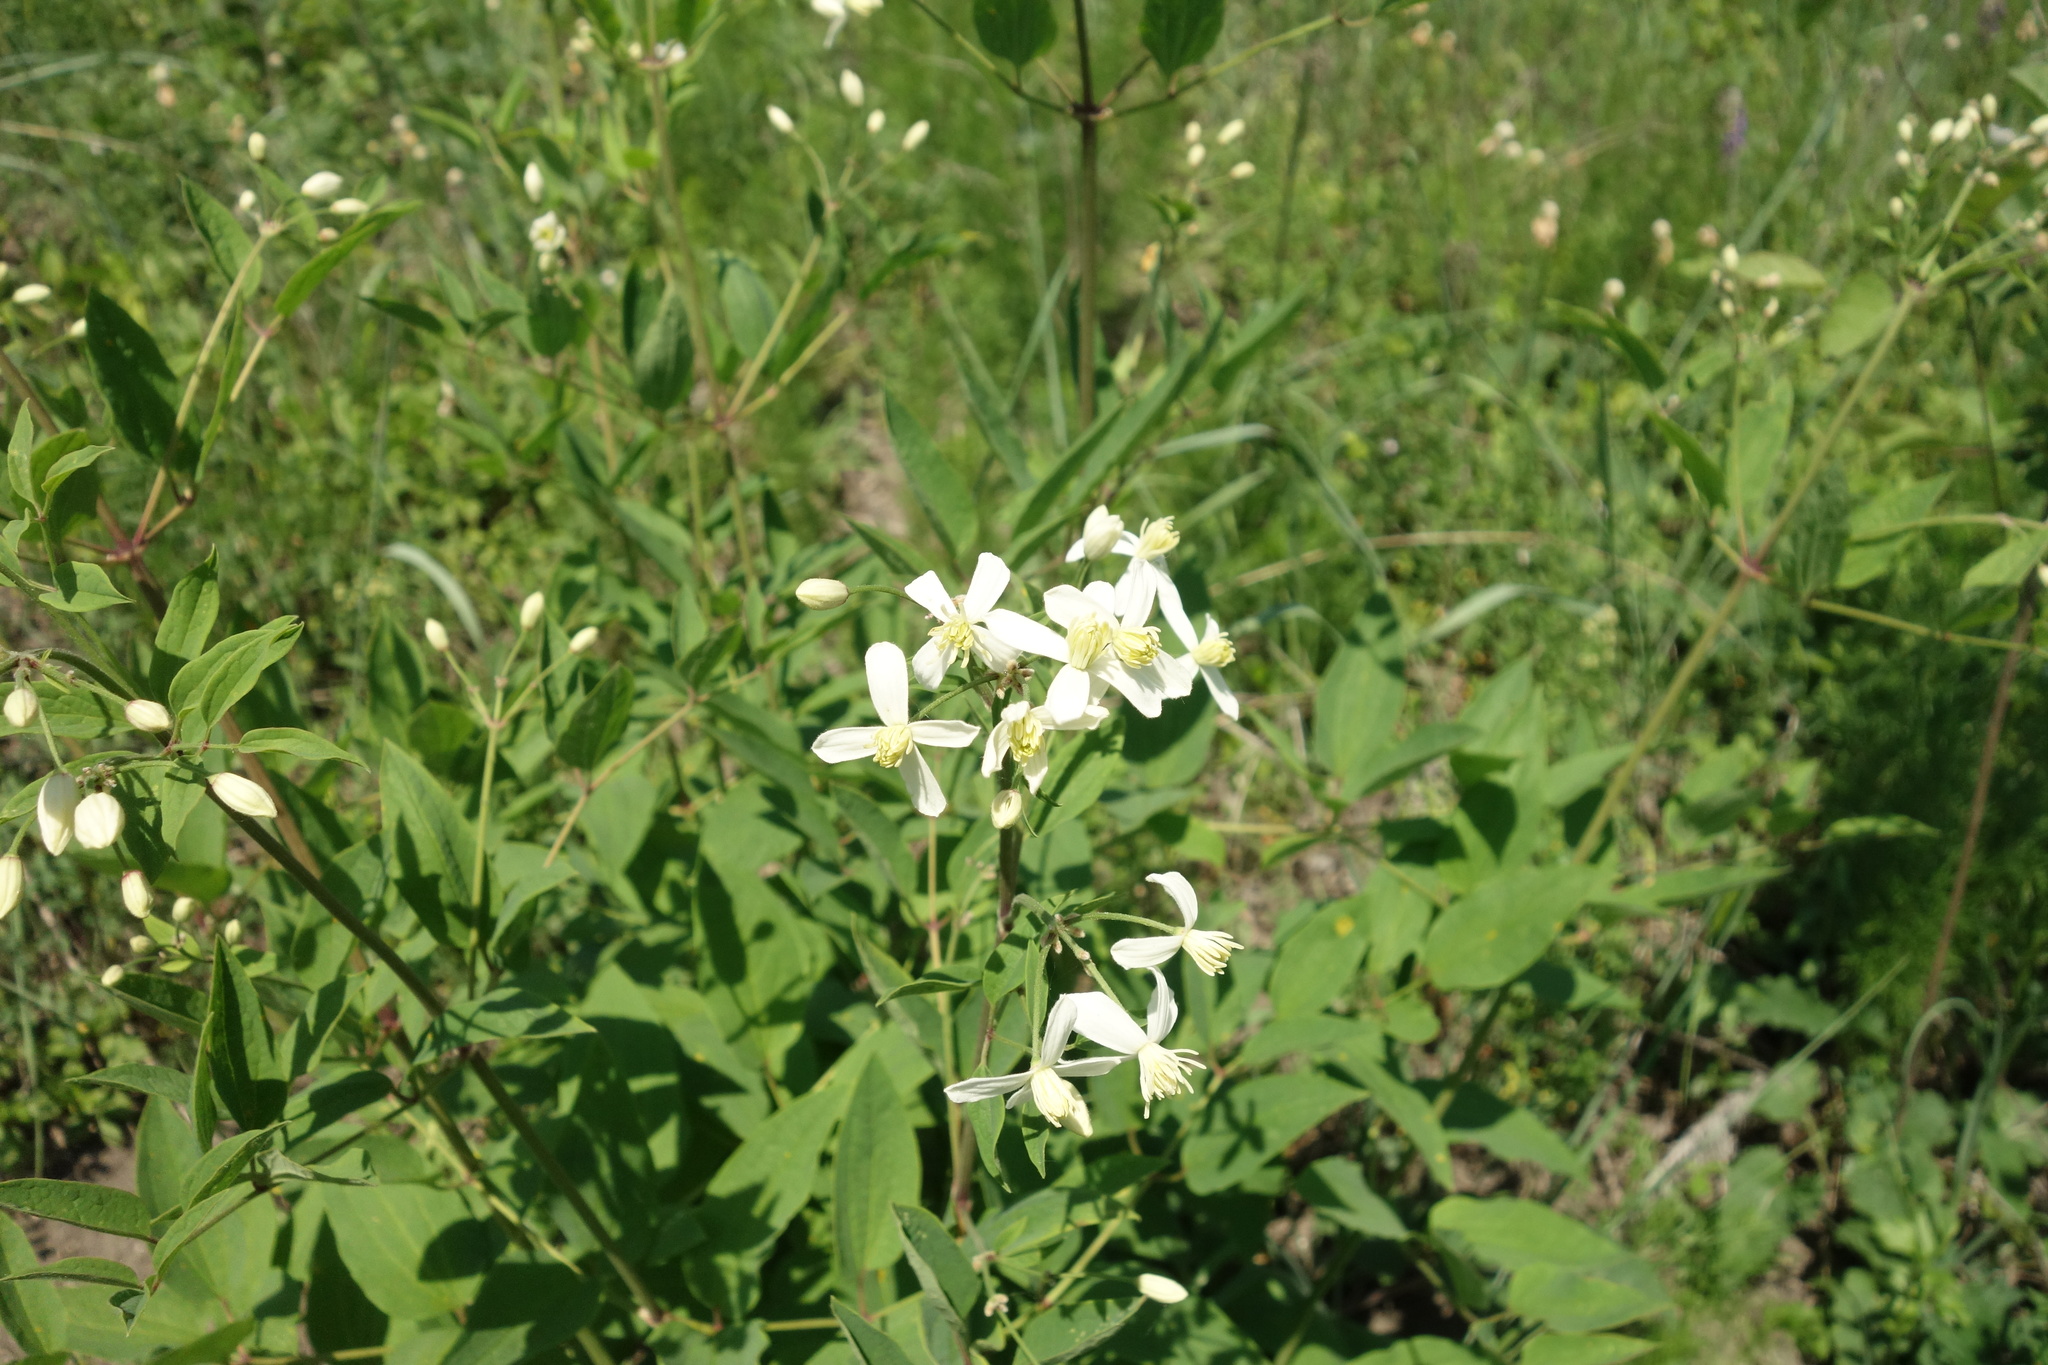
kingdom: Plantae
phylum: Tracheophyta
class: Magnoliopsida
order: Ranunculales
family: Ranunculaceae
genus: Clematis
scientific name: Clematis recta
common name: Ground clematis
